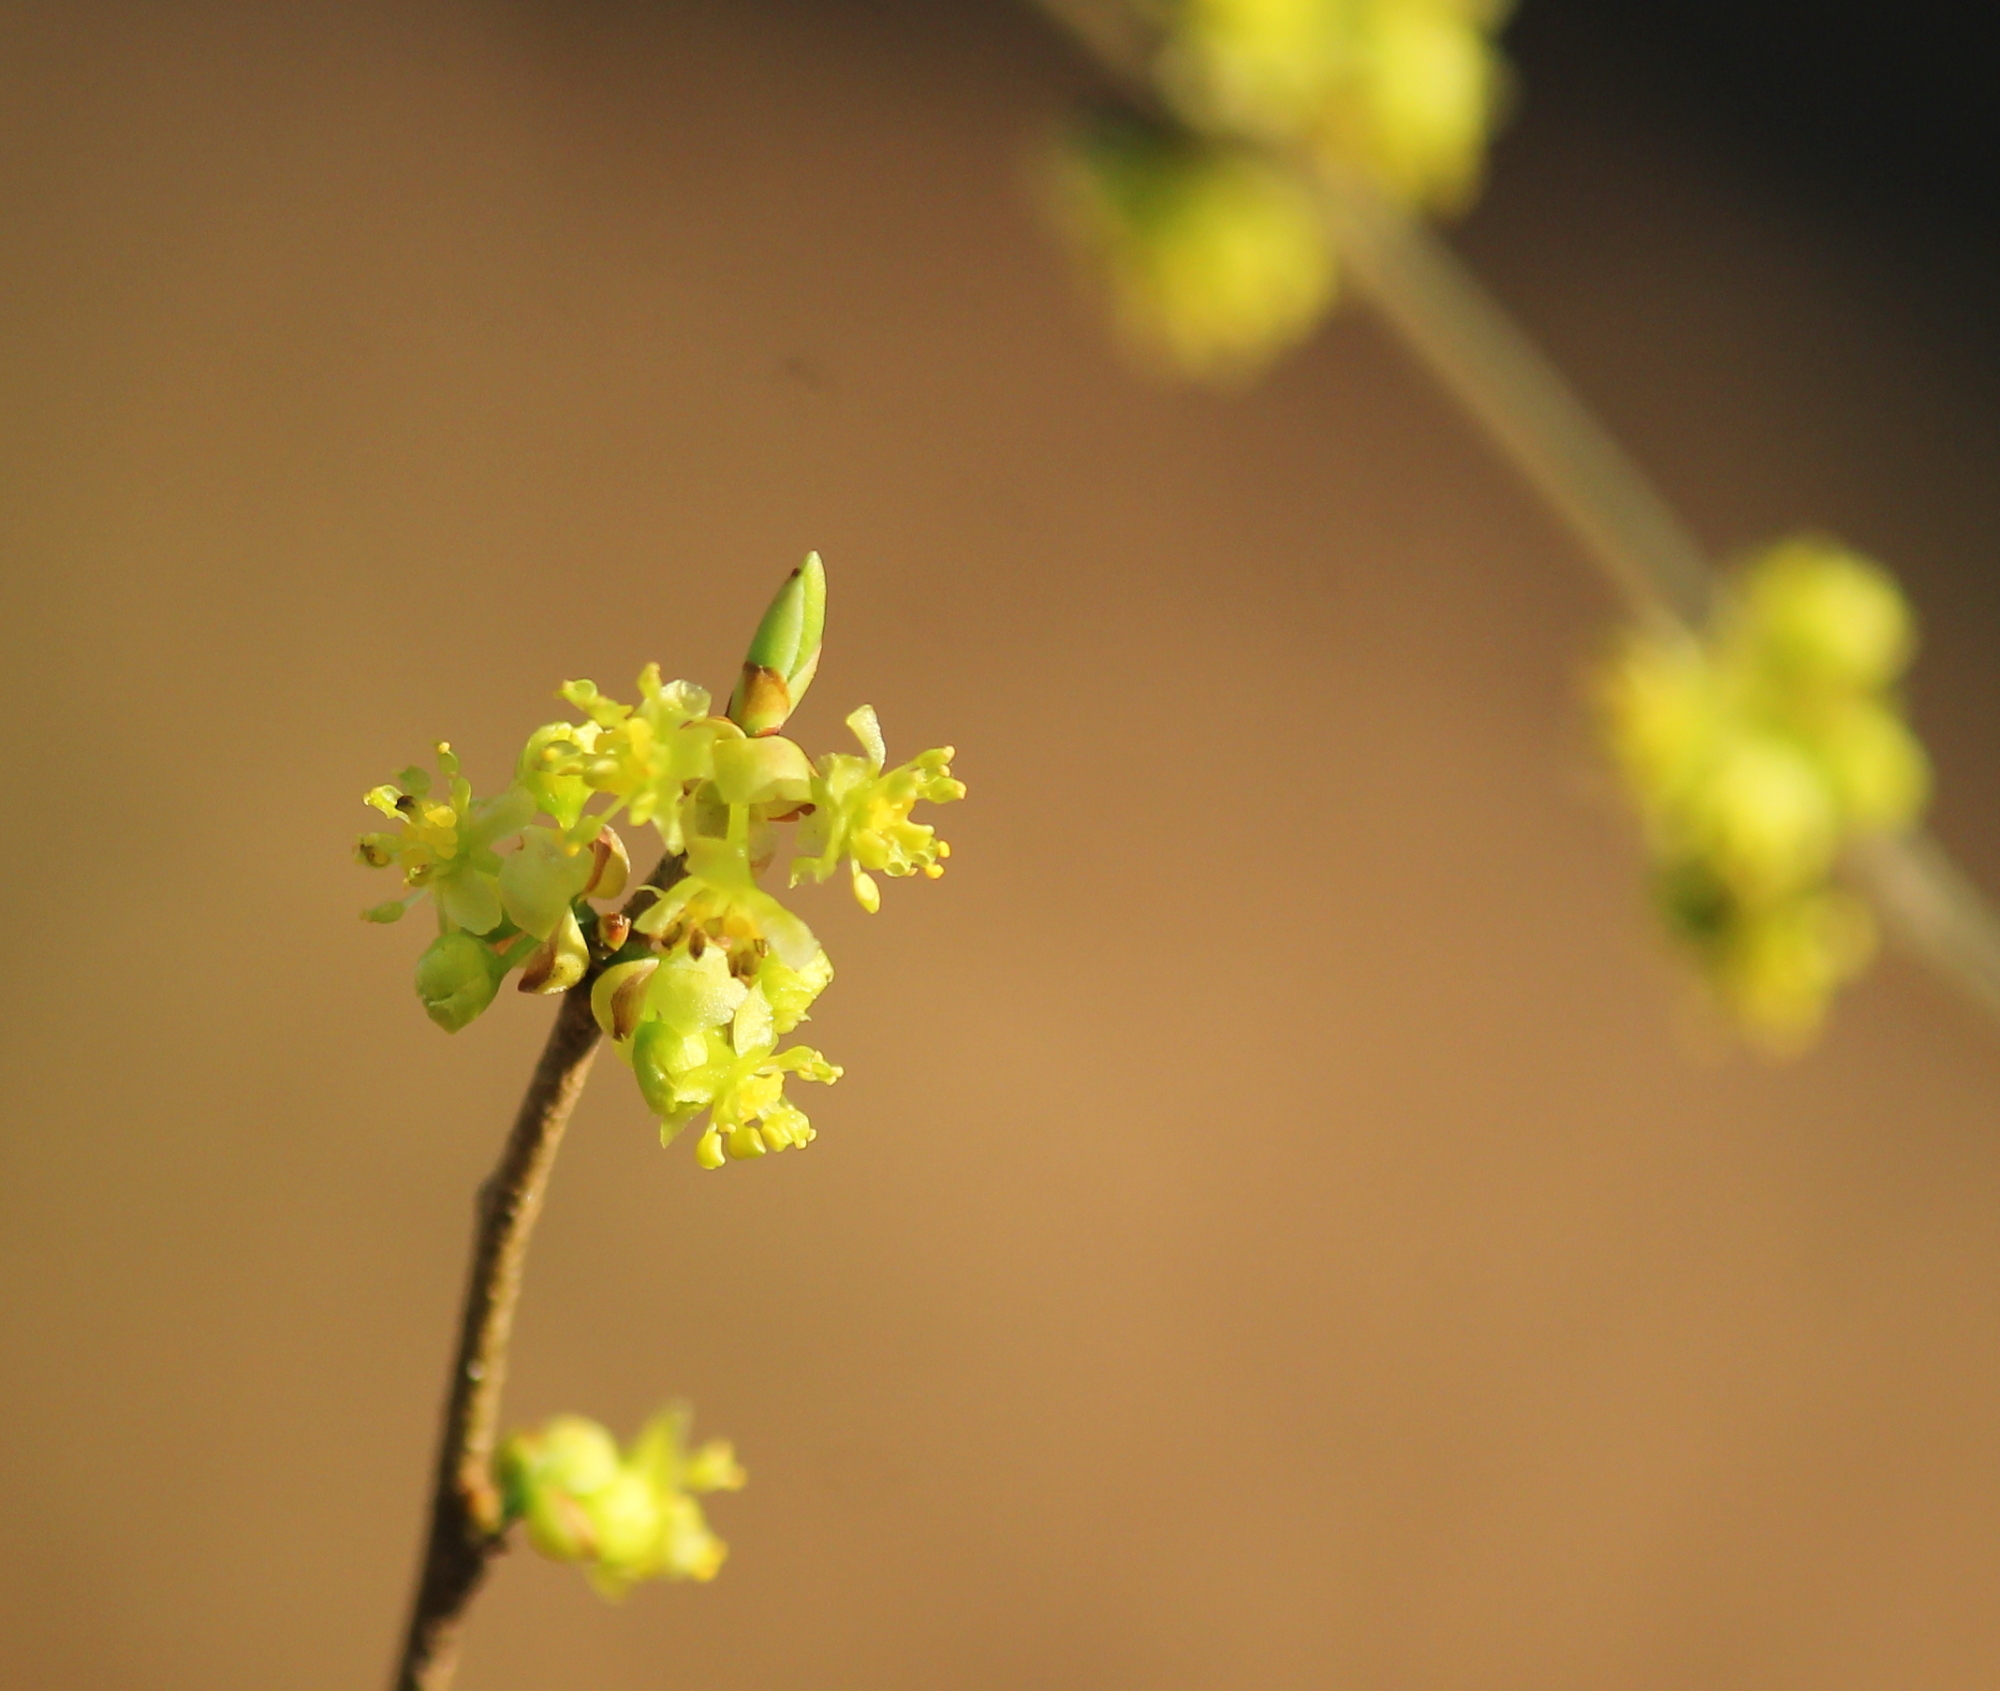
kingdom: Plantae
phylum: Tracheophyta
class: Magnoliopsida
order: Laurales
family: Lauraceae
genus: Lindera
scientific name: Lindera benzoin
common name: Spicebush
